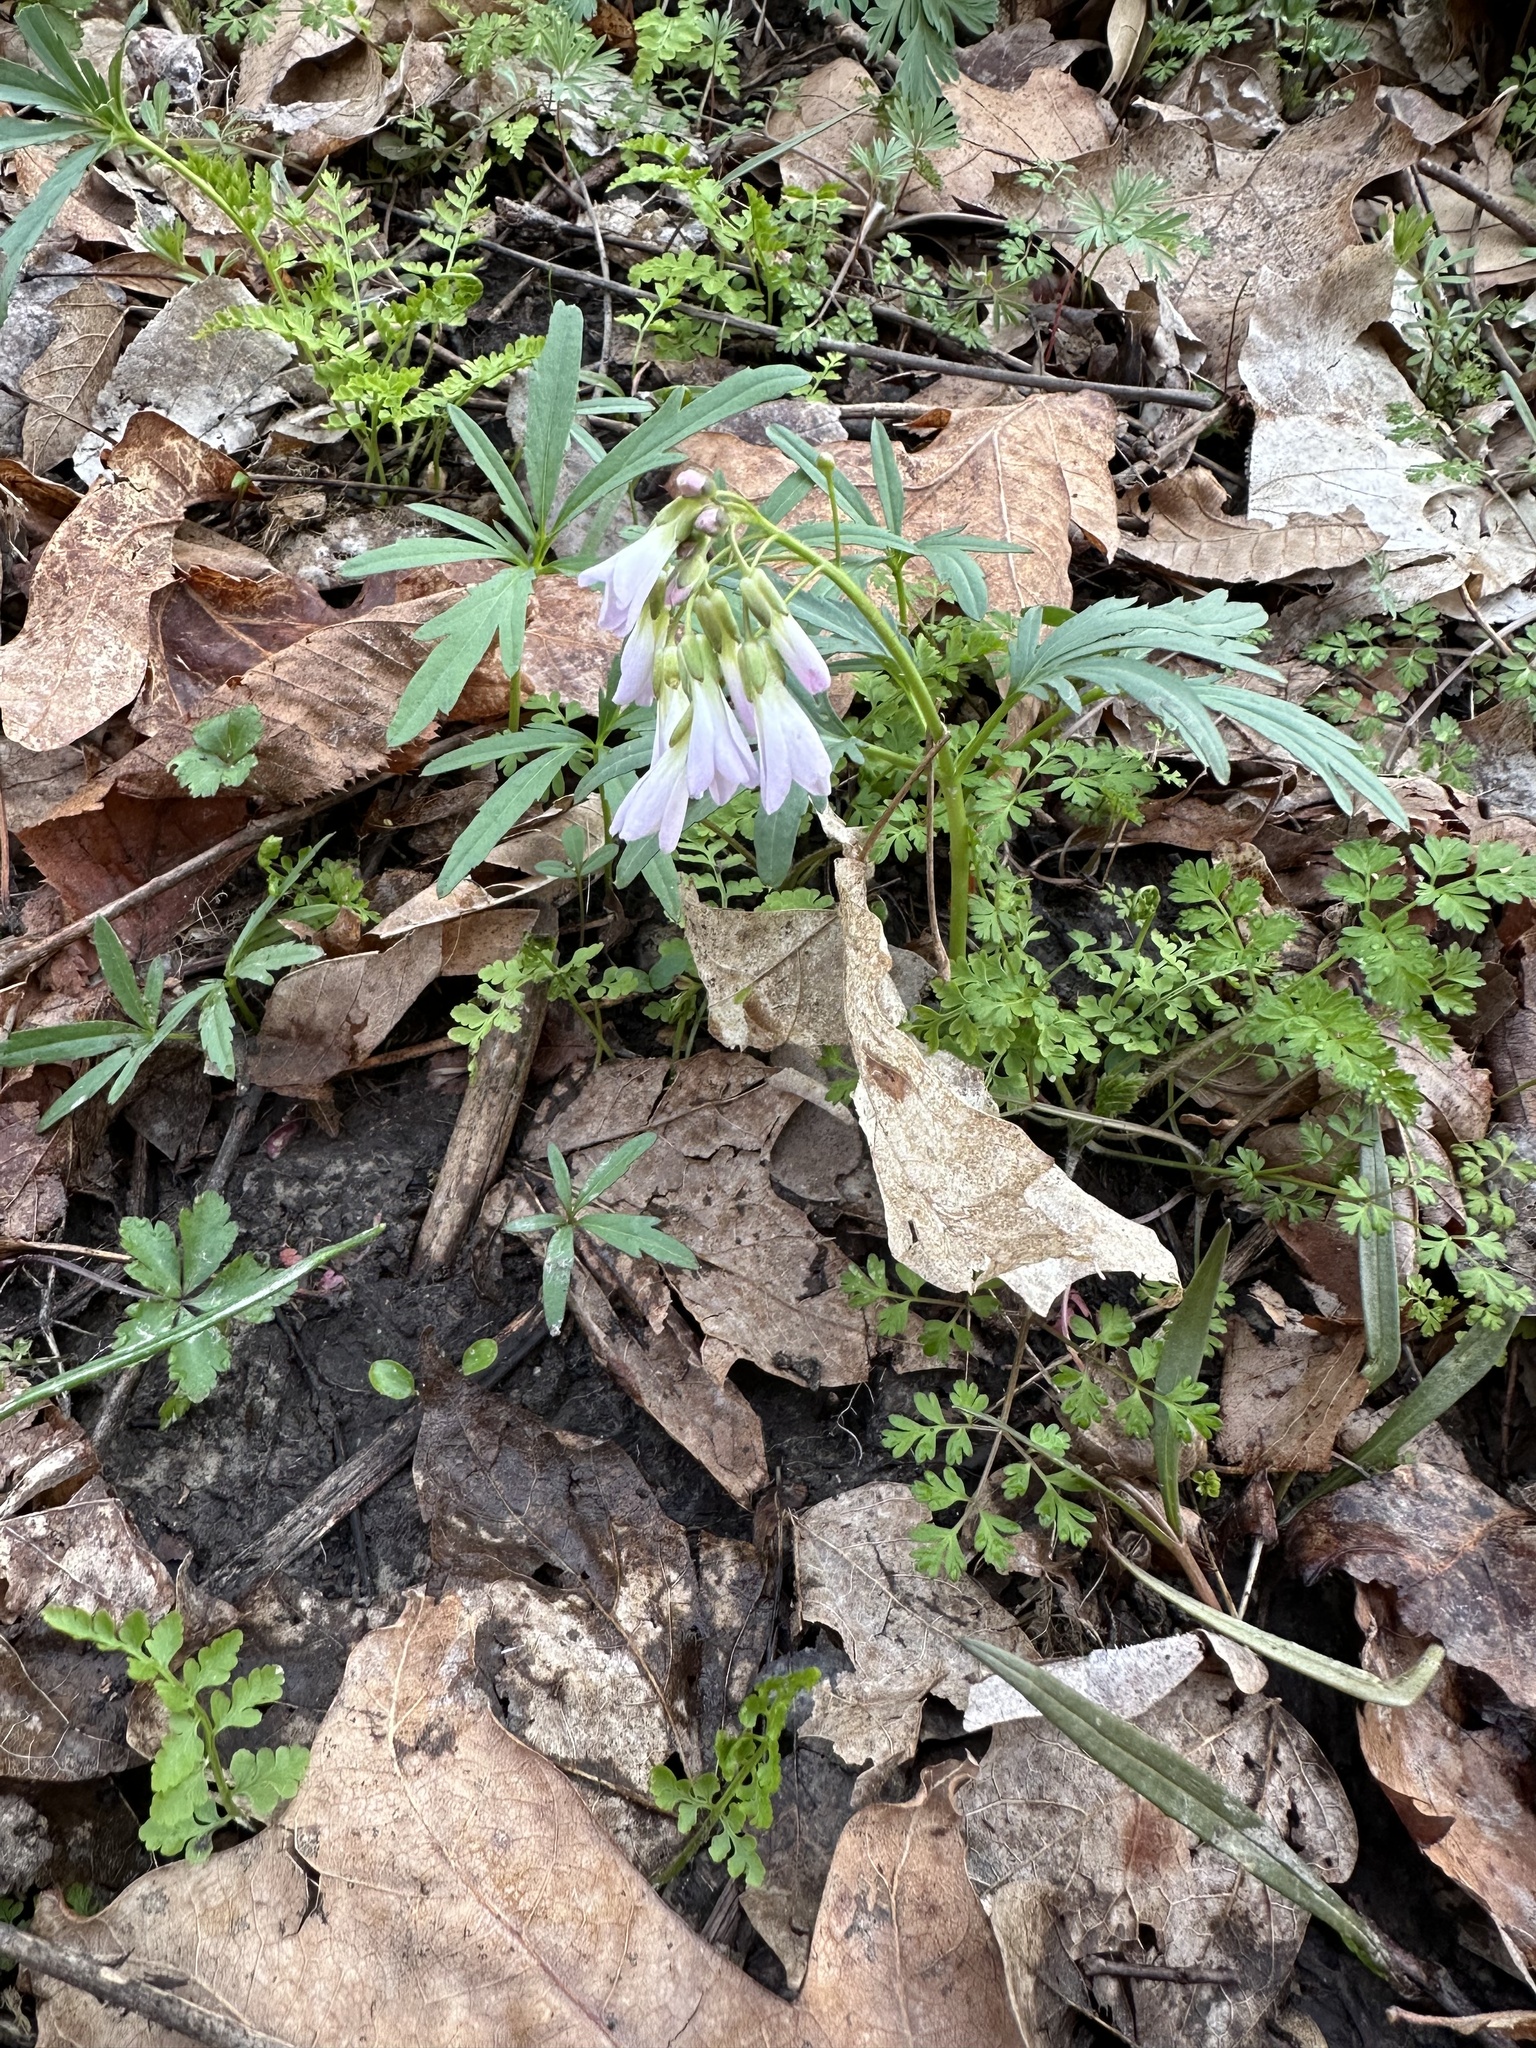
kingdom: Plantae
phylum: Tracheophyta
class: Magnoliopsida
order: Brassicales
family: Brassicaceae
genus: Cardamine
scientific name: Cardamine concatenata
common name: Cut-leaf toothcup
